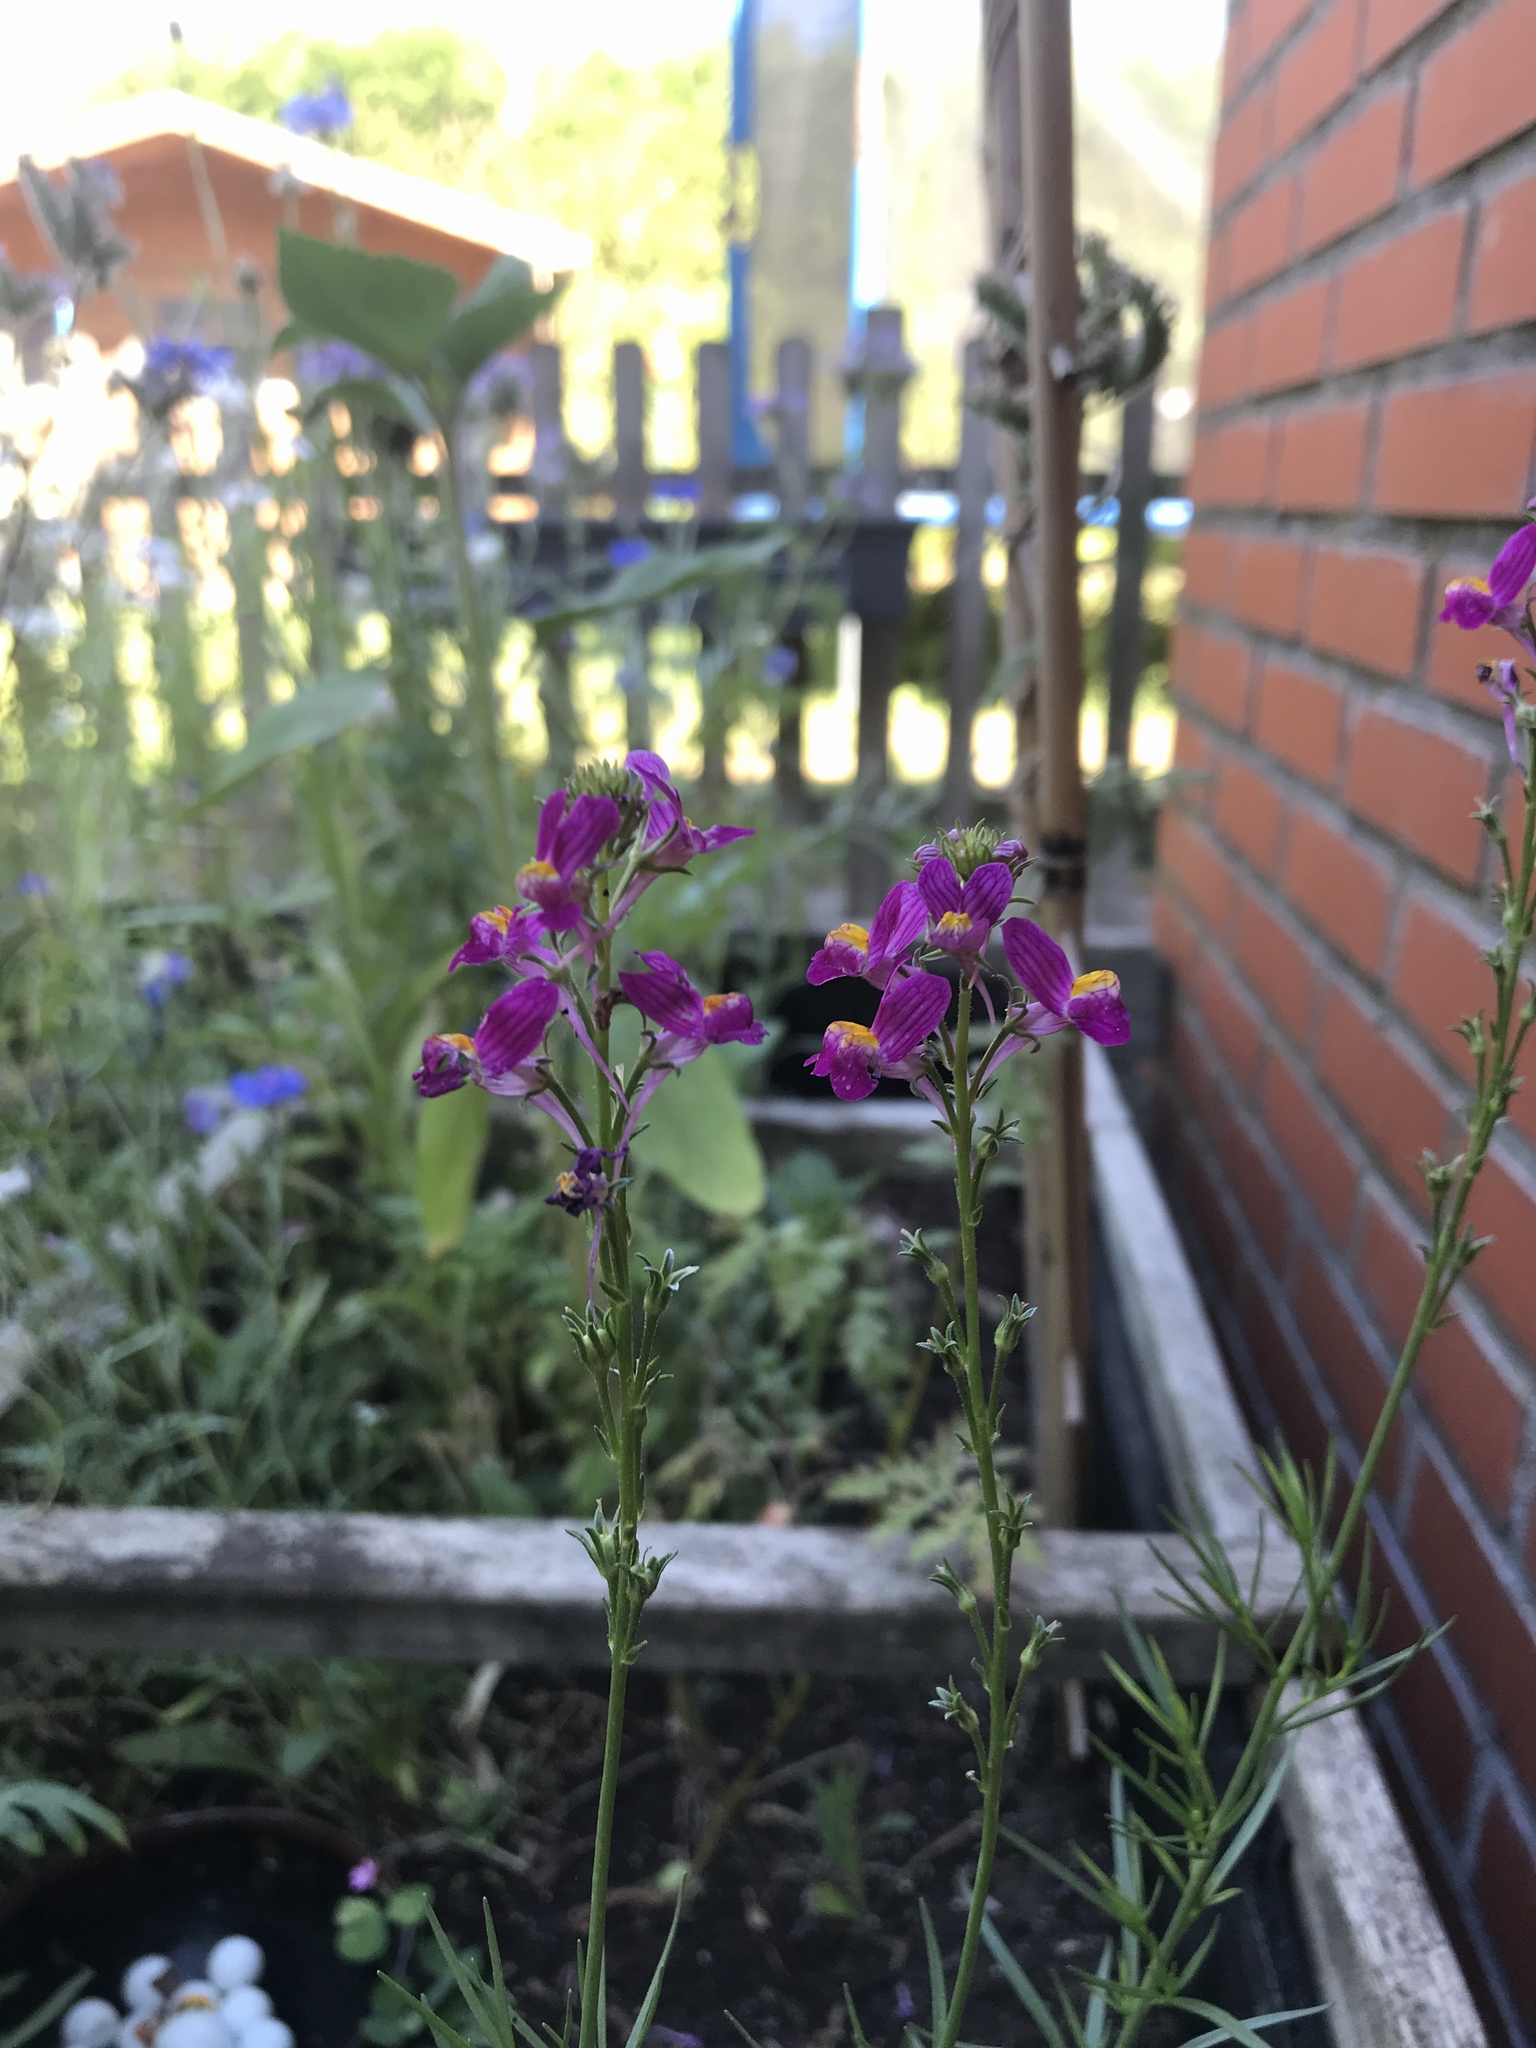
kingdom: Plantae
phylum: Tracheophyta
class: Magnoliopsida
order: Lamiales
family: Plantaginaceae
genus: Linaria
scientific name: Linaria maroccana
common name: Moroccan toadflax
